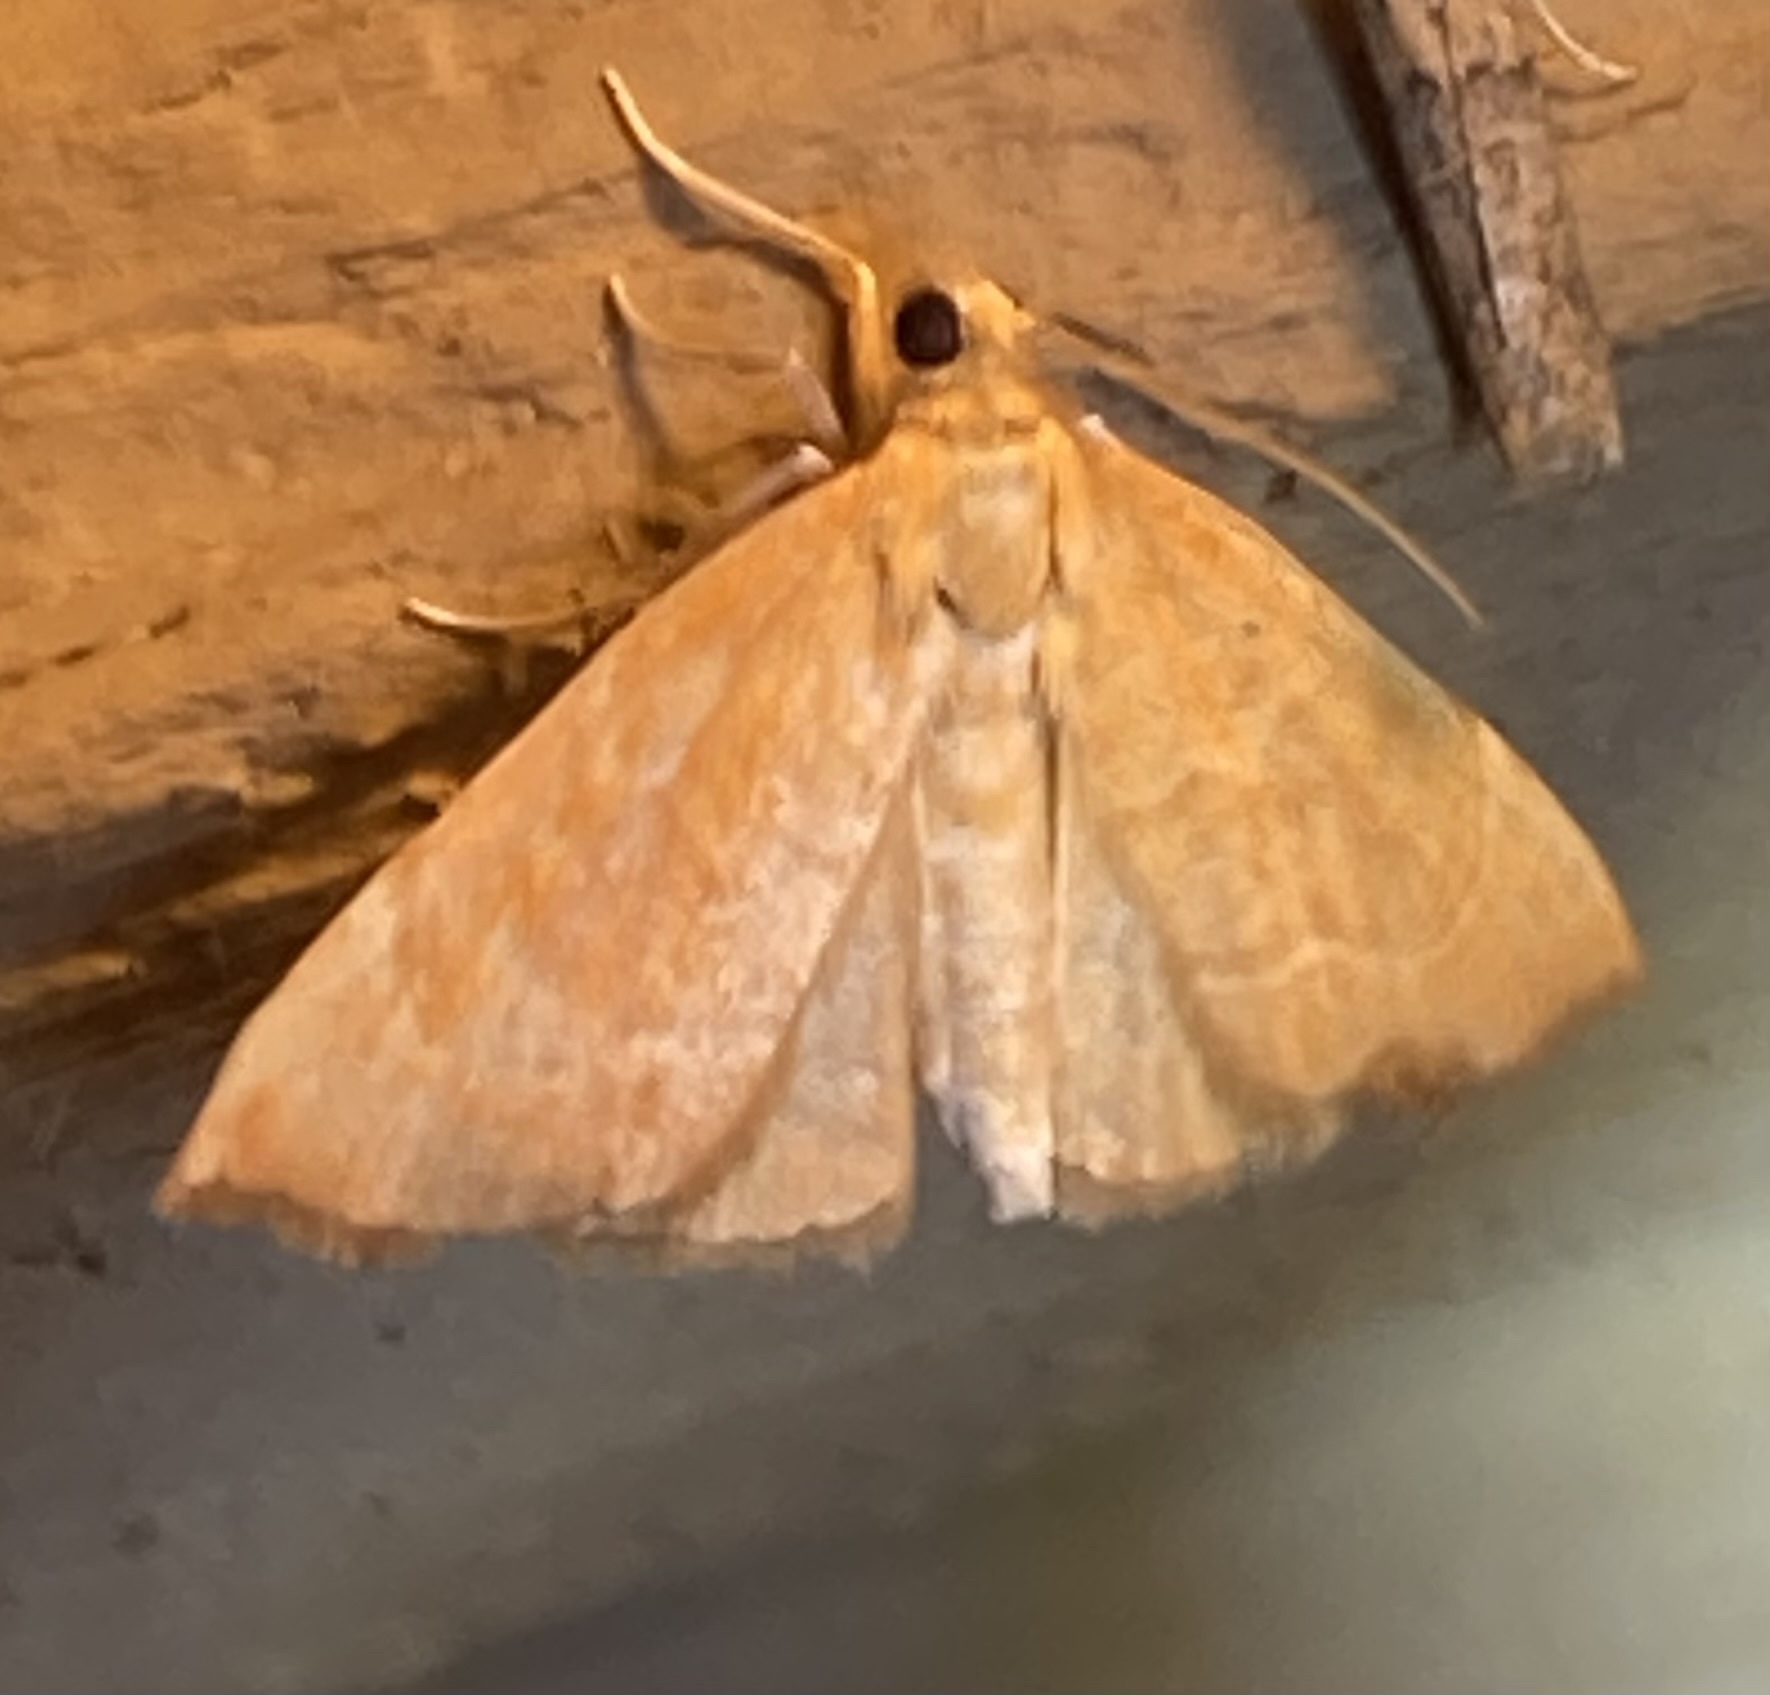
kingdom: Animalia
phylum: Arthropoda
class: Insecta
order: Lepidoptera
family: Crambidae
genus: Glaphyria
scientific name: Glaphyria invisalis
